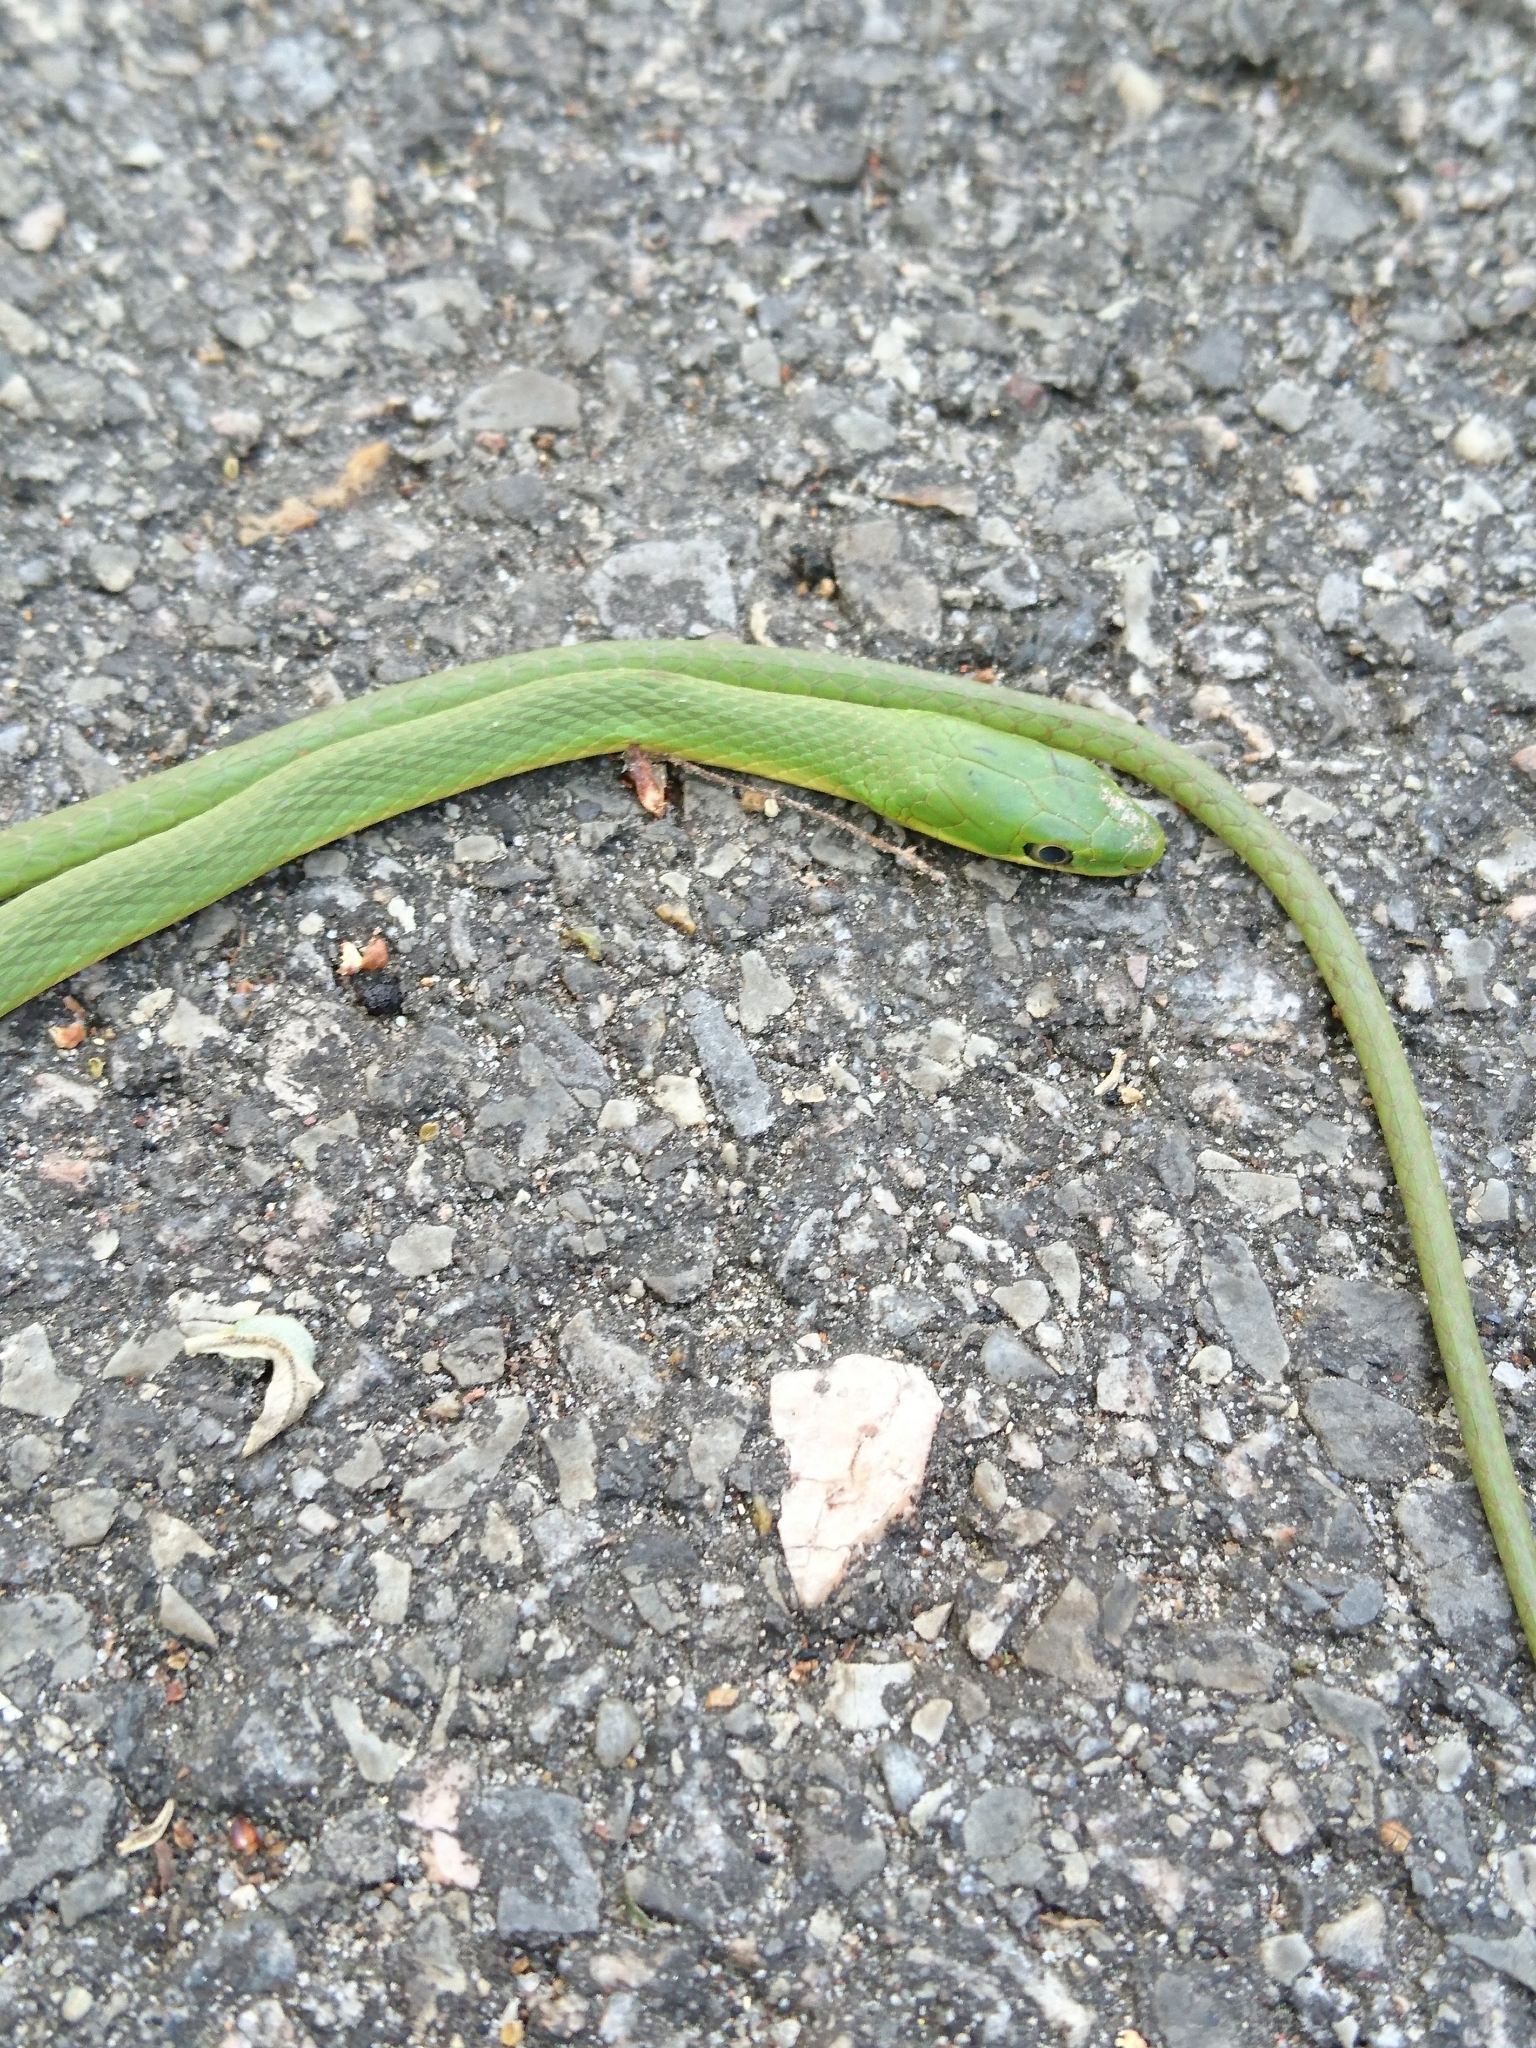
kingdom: Animalia
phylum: Chordata
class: Squamata
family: Colubridae
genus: Opheodrys
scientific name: Opheodrys aestivus
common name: Rough greensnake
